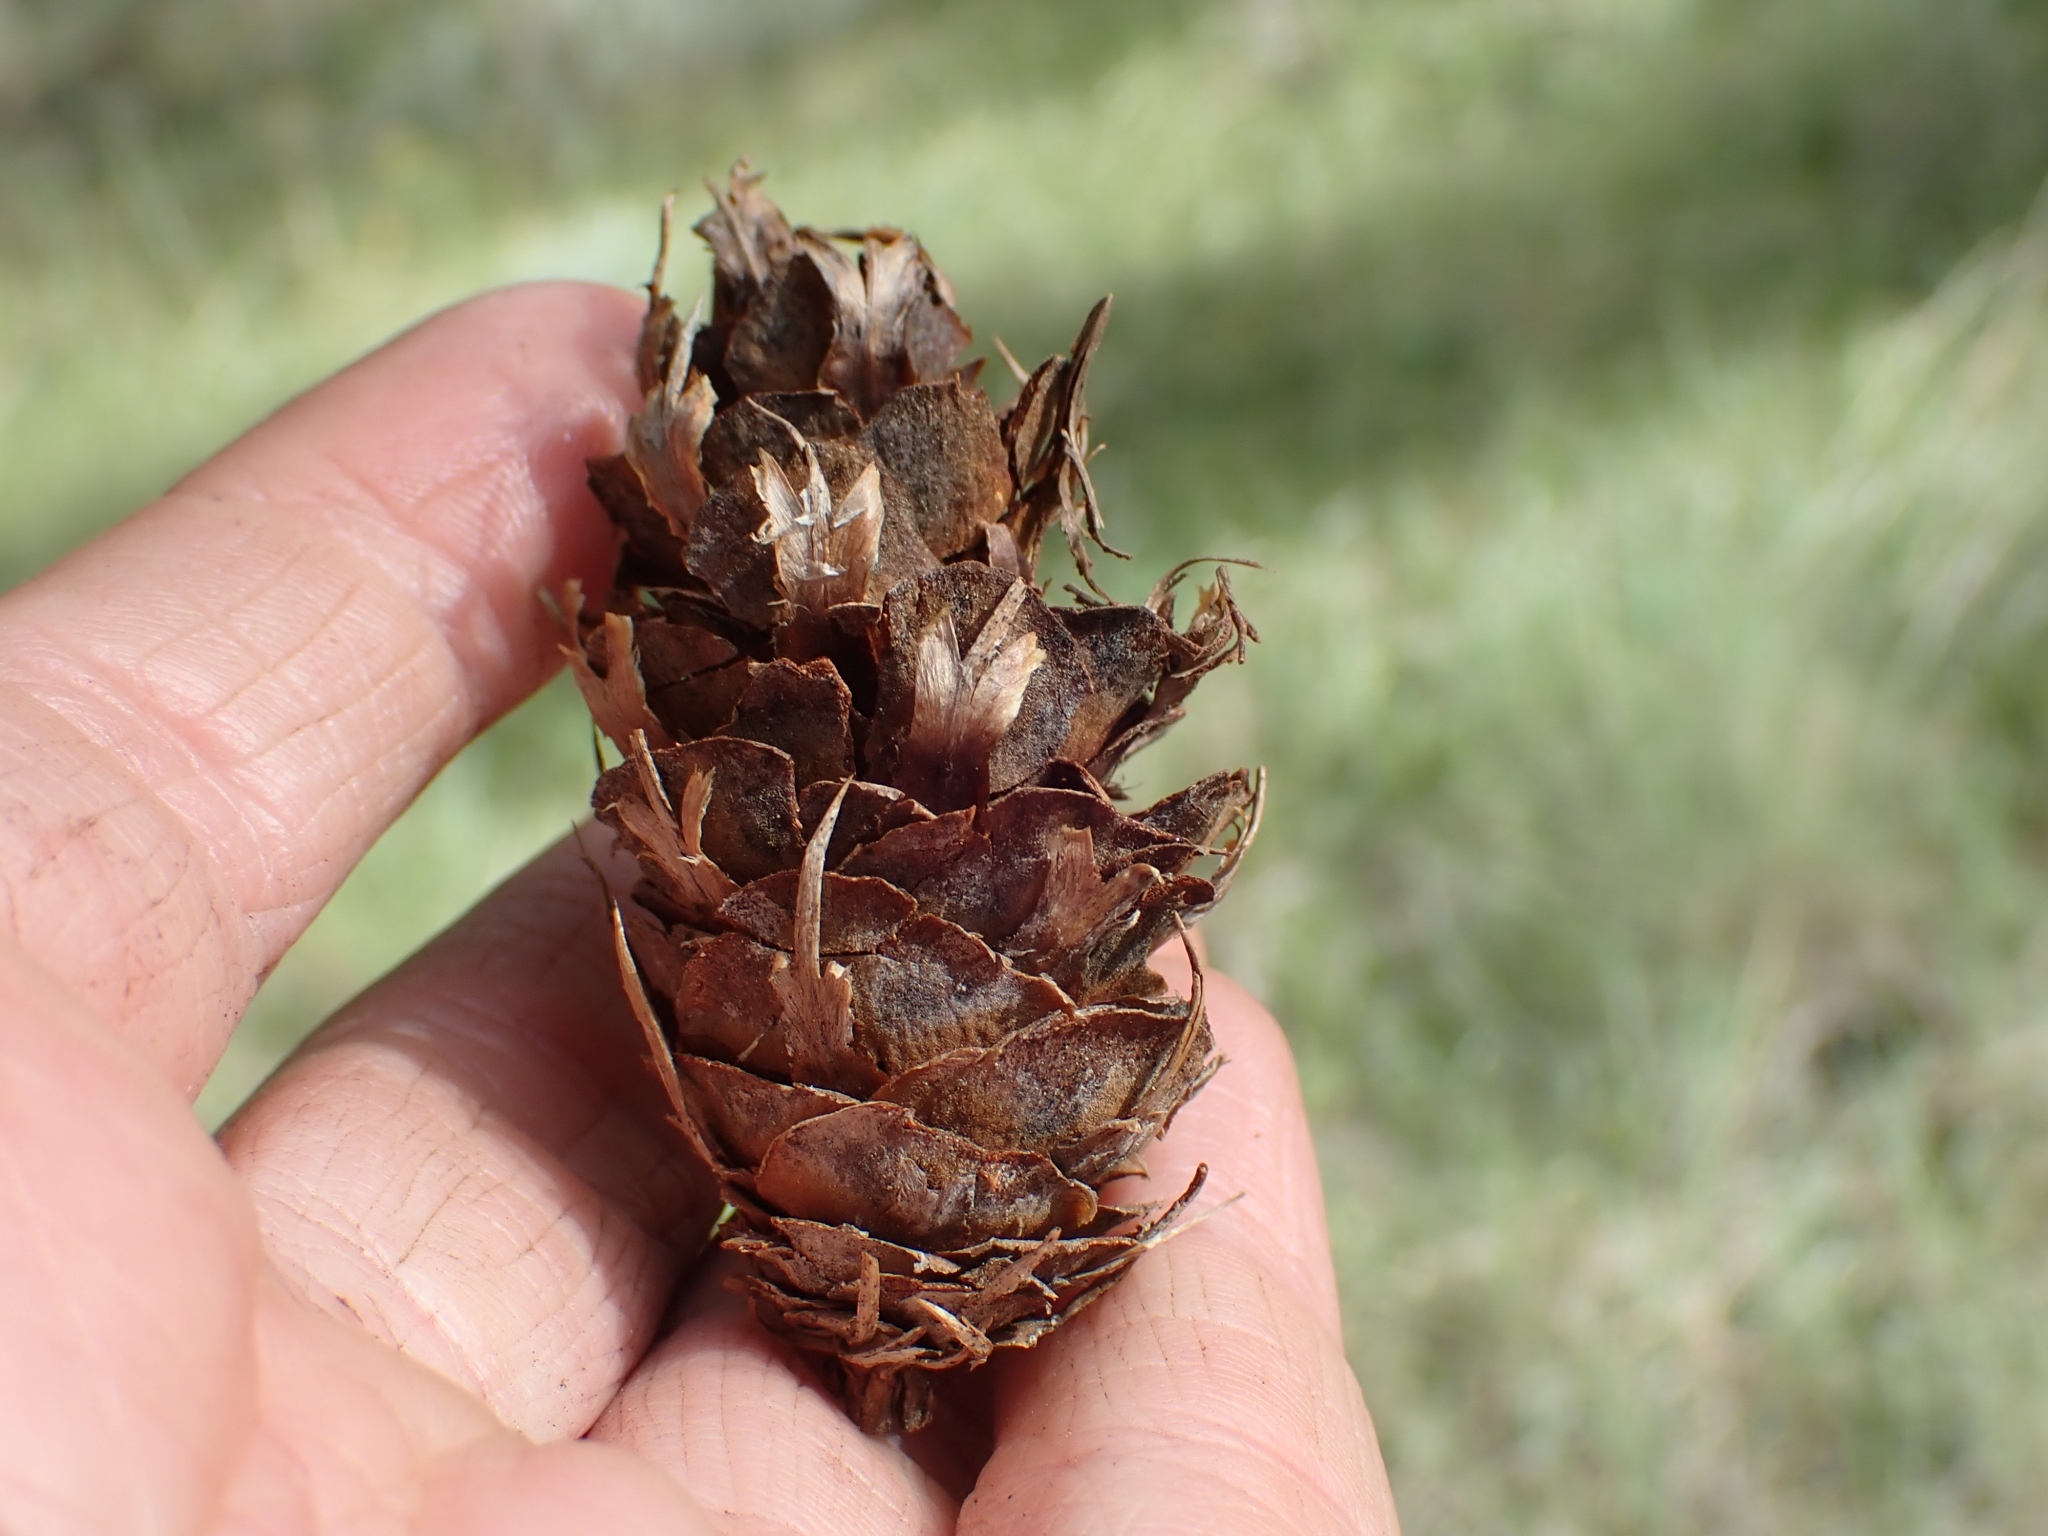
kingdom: Plantae
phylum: Tracheophyta
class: Pinopsida
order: Pinales
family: Pinaceae
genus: Pseudotsuga
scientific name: Pseudotsuga menziesii
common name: Douglas fir
